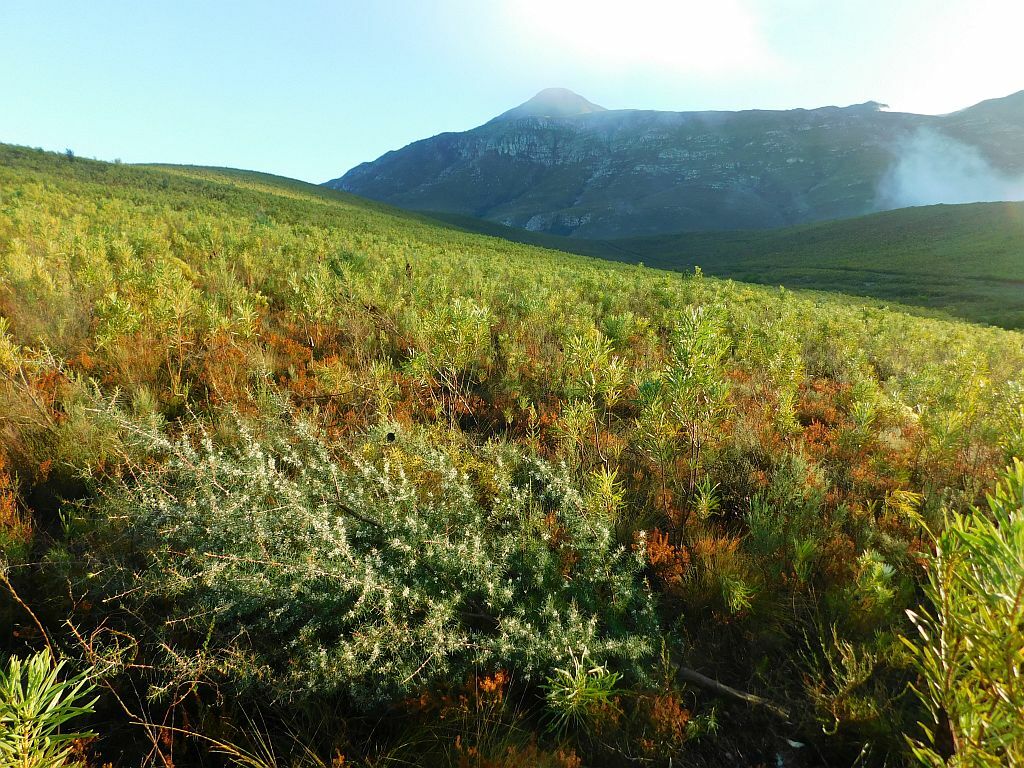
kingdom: Plantae
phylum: Tracheophyta
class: Magnoliopsida
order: Proteales
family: Proteaceae
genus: Hakea
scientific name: Hakea sericea
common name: Needle bush
